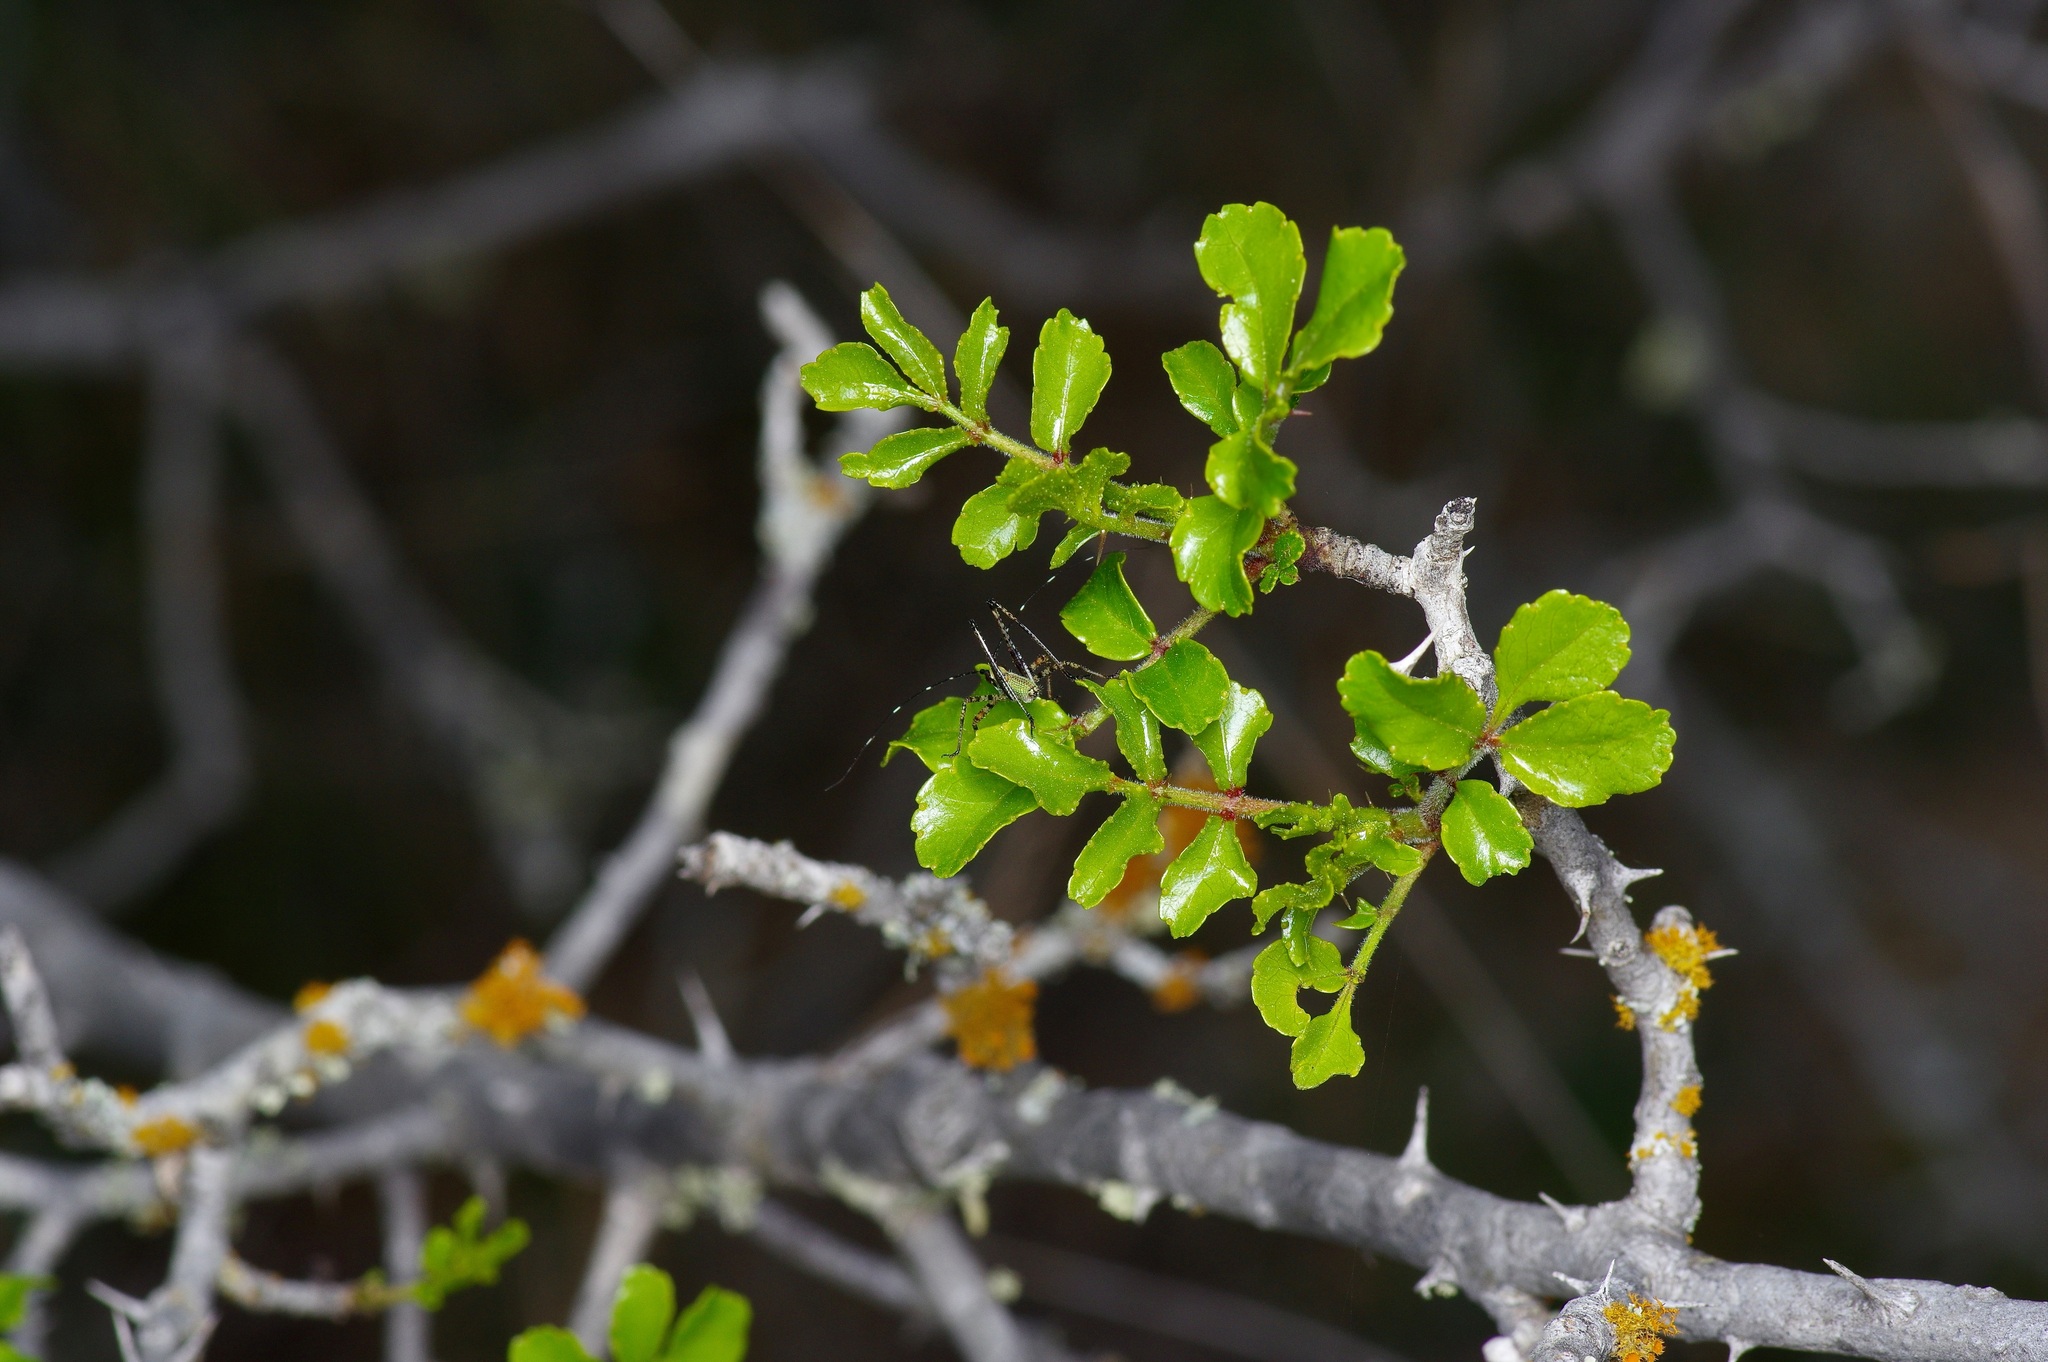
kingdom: Plantae
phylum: Tracheophyta
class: Magnoliopsida
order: Sapindales
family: Rutaceae
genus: Zanthoxylum
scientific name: Zanthoxylum clava-herculis
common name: Hercules'-club
